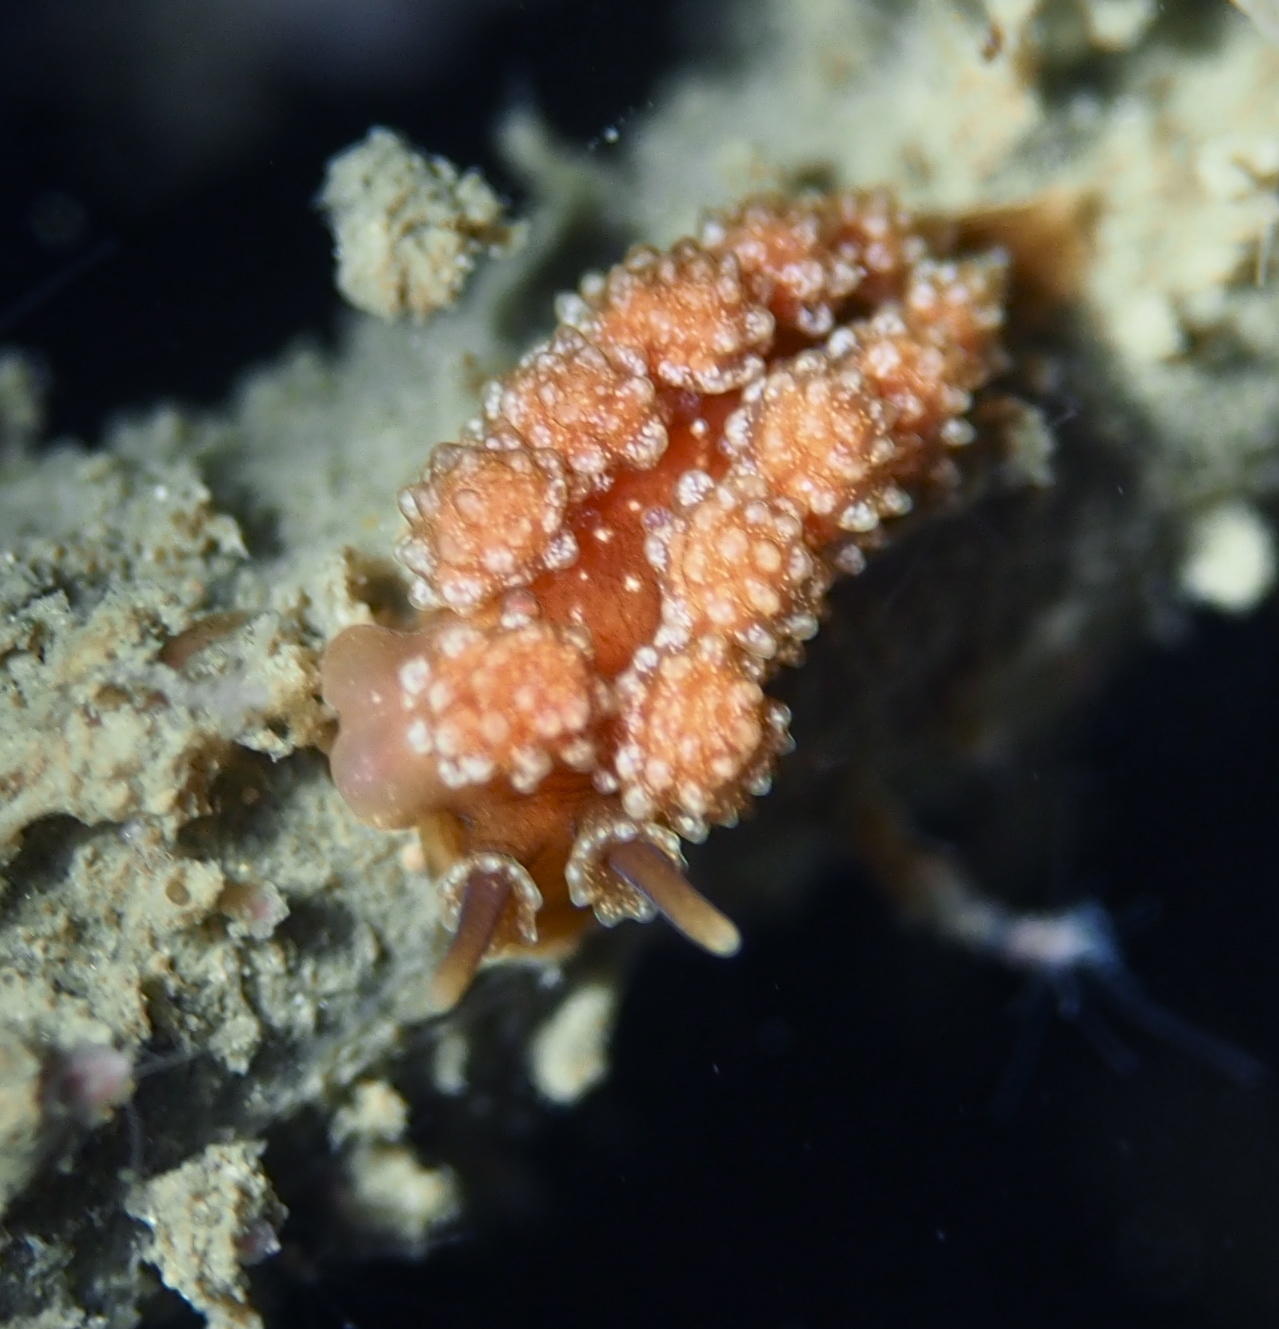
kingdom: Animalia
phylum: Mollusca
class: Gastropoda
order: Nudibranchia
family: Dotidae
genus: Doto
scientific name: Doto fragilis
